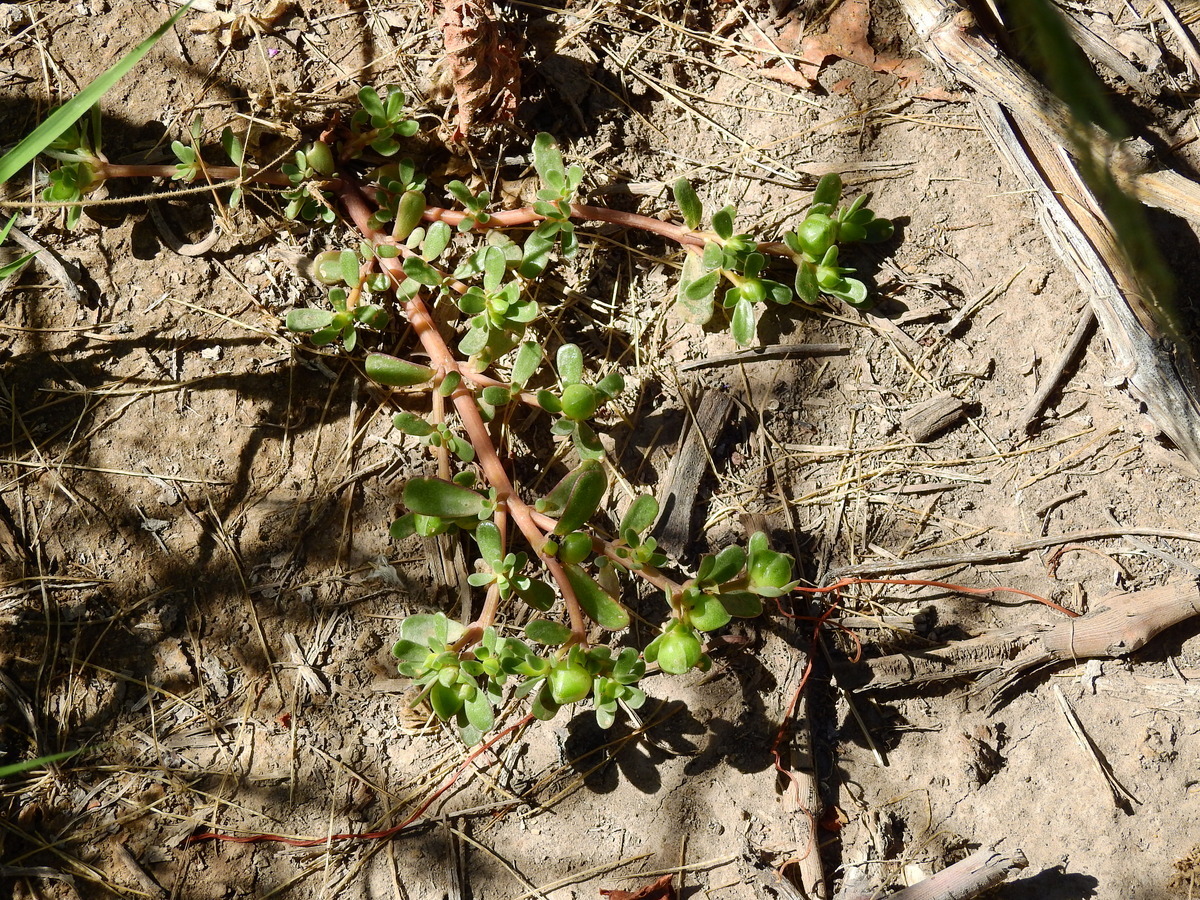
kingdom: Plantae
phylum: Tracheophyta
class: Magnoliopsida
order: Caryophyllales
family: Portulacaceae
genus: Portulaca
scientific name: Portulaca oleracea
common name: Common purslane
